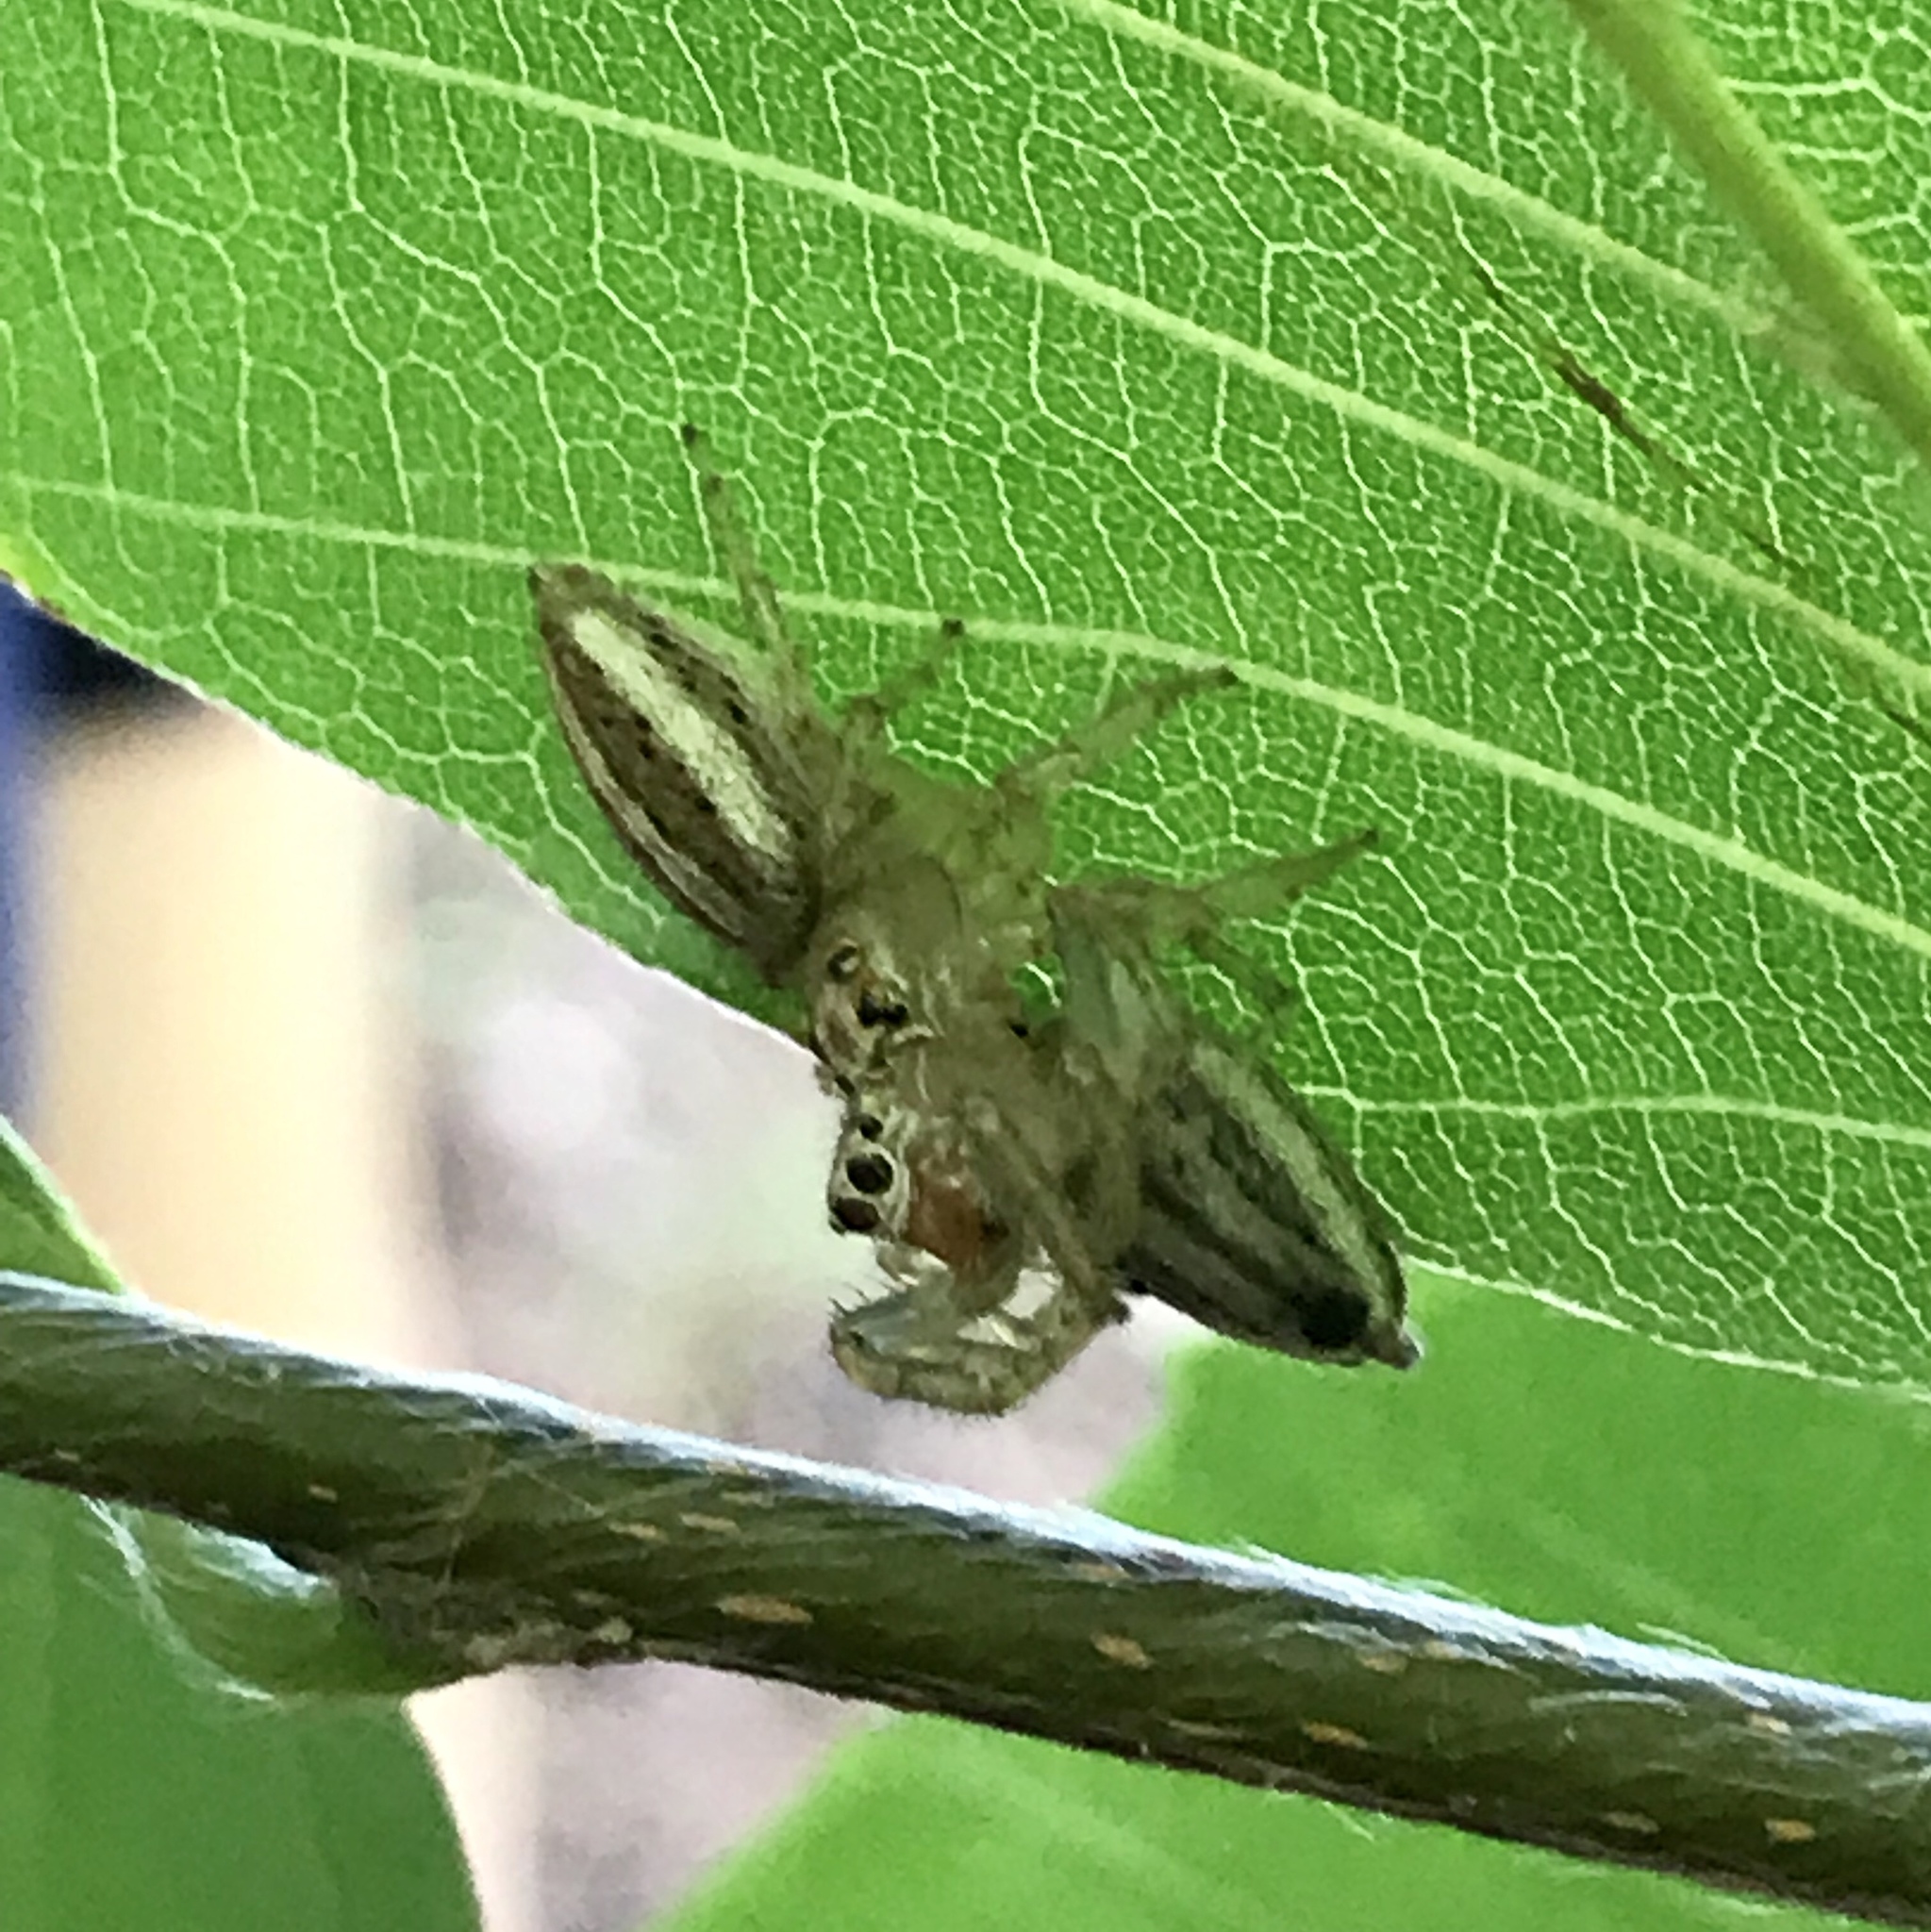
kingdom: Animalia
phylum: Arthropoda
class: Arachnida
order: Araneae
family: Salticidae
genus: Colonus
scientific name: Colonus sylvanus
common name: Jumping spiders
